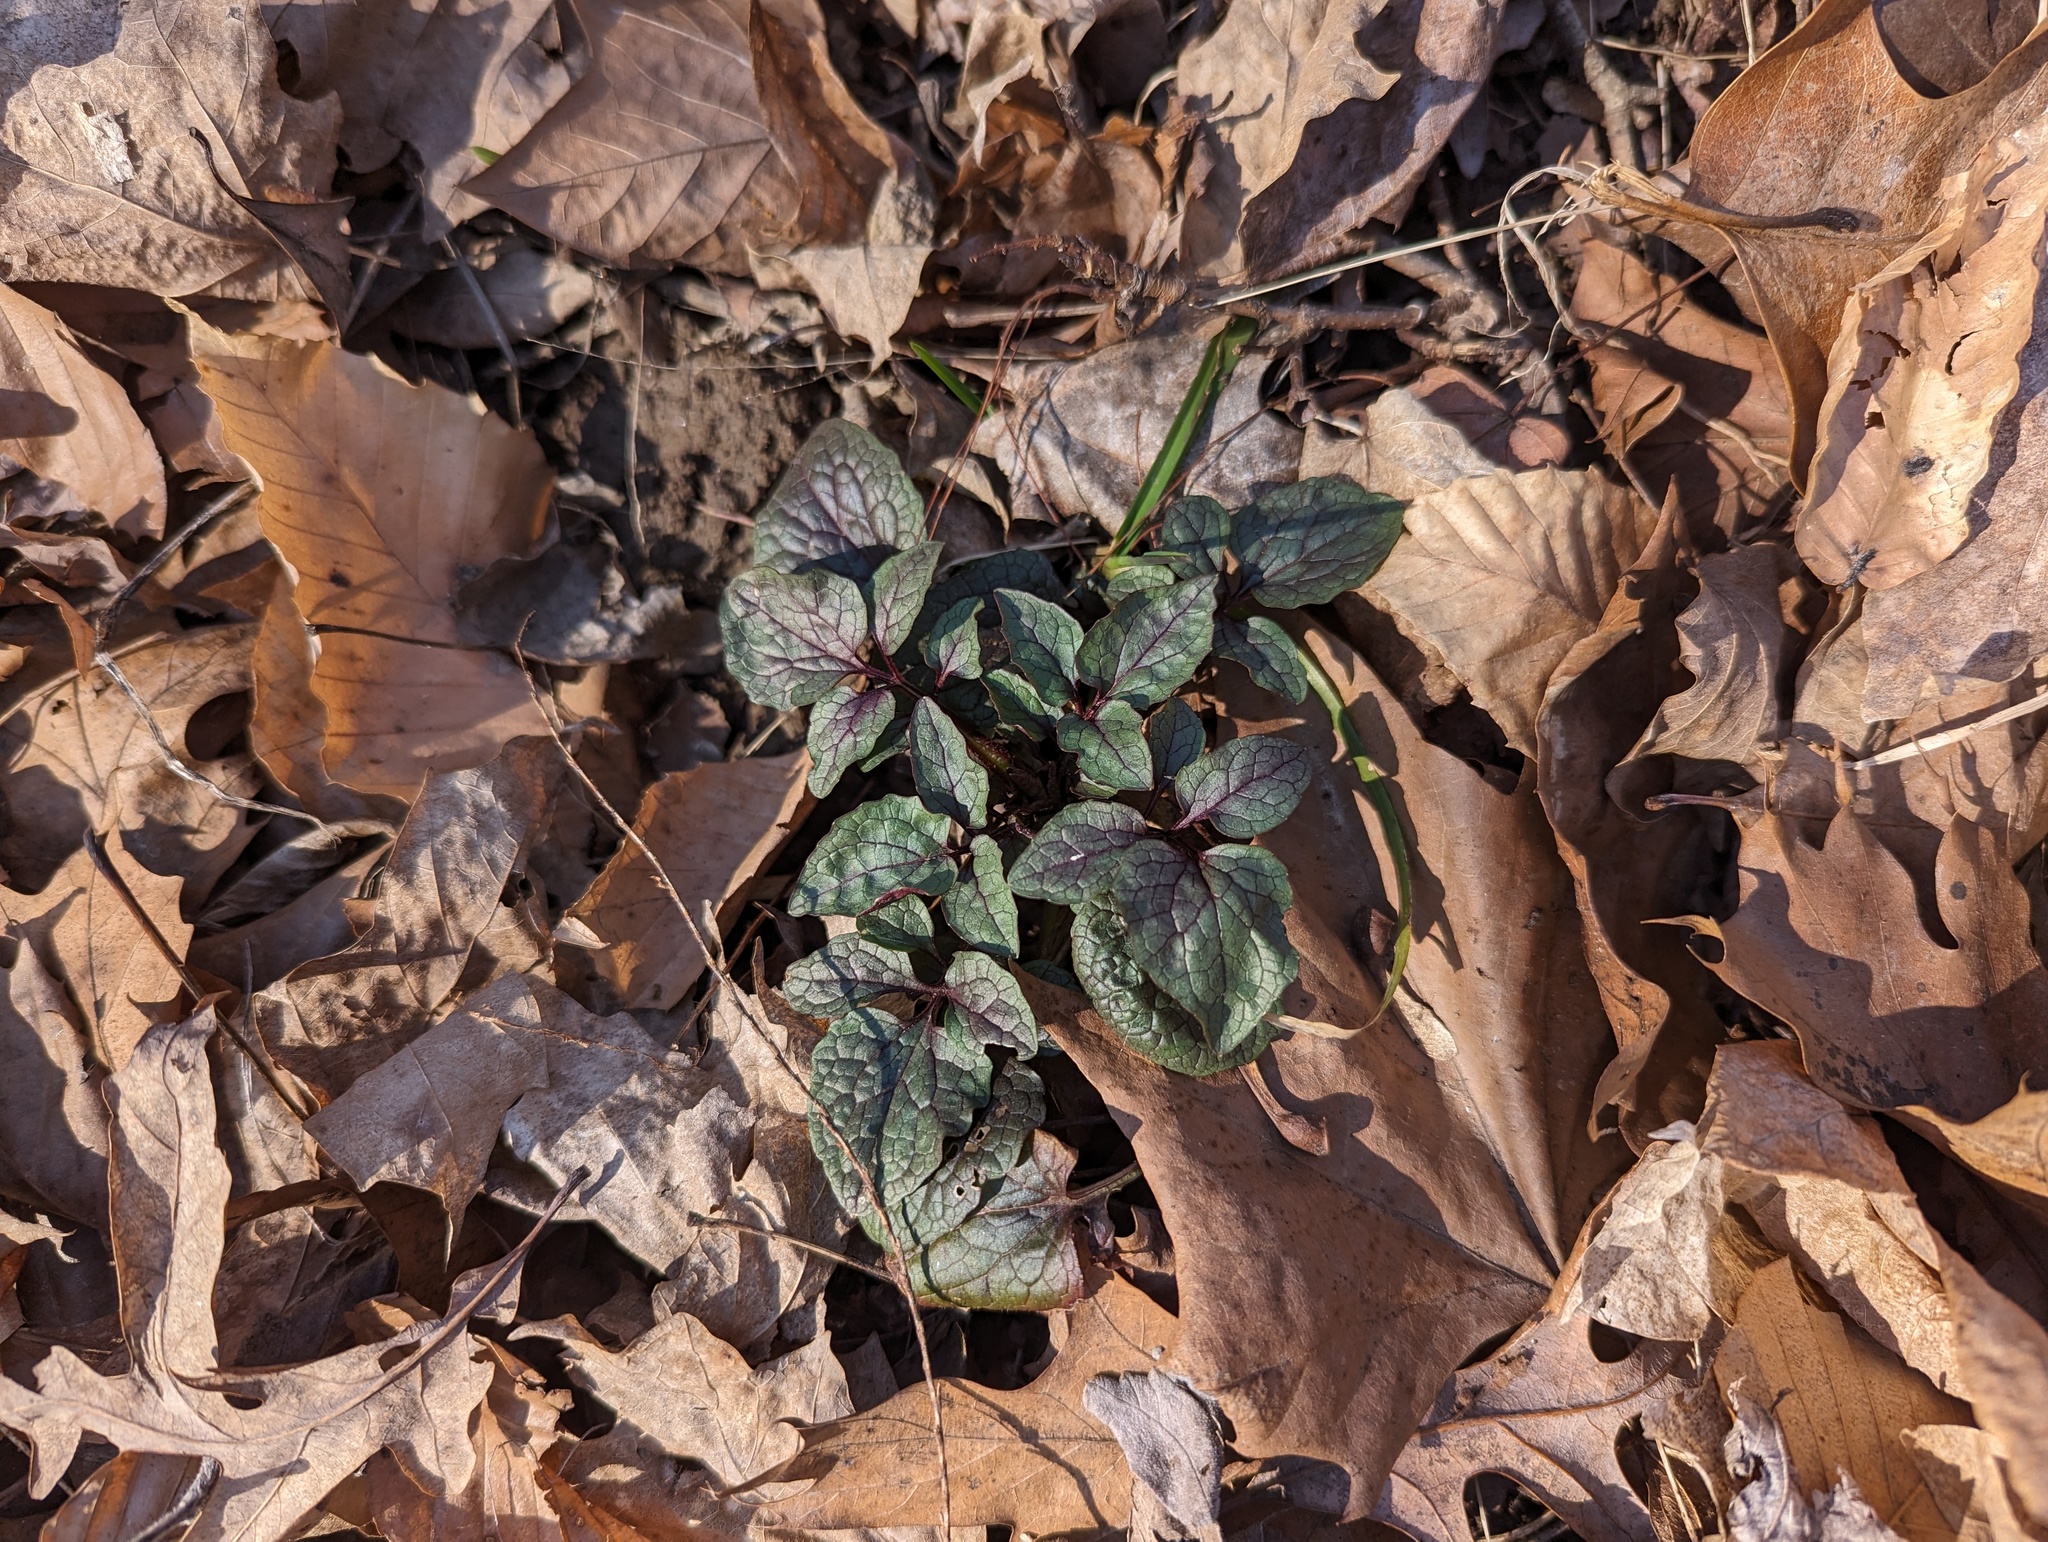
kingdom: Plantae
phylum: Tracheophyta
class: Magnoliopsida
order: Dipsacales
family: Caprifoliaceae
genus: Valeriana
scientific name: Valeriana pauciflora
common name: Long-tube valeriana
